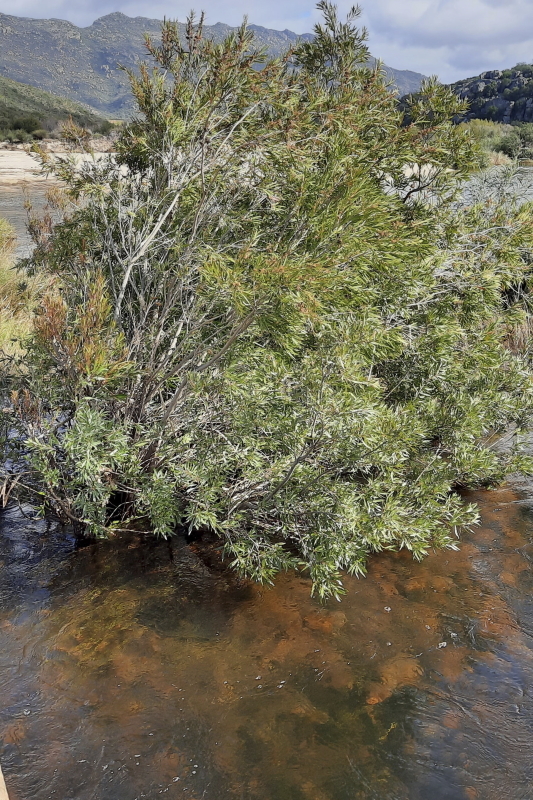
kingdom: Plantae
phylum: Tracheophyta
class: Magnoliopsida
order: Myrtales
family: Myrtaceae
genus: Callistemon
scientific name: Callistemon lanceolatus
